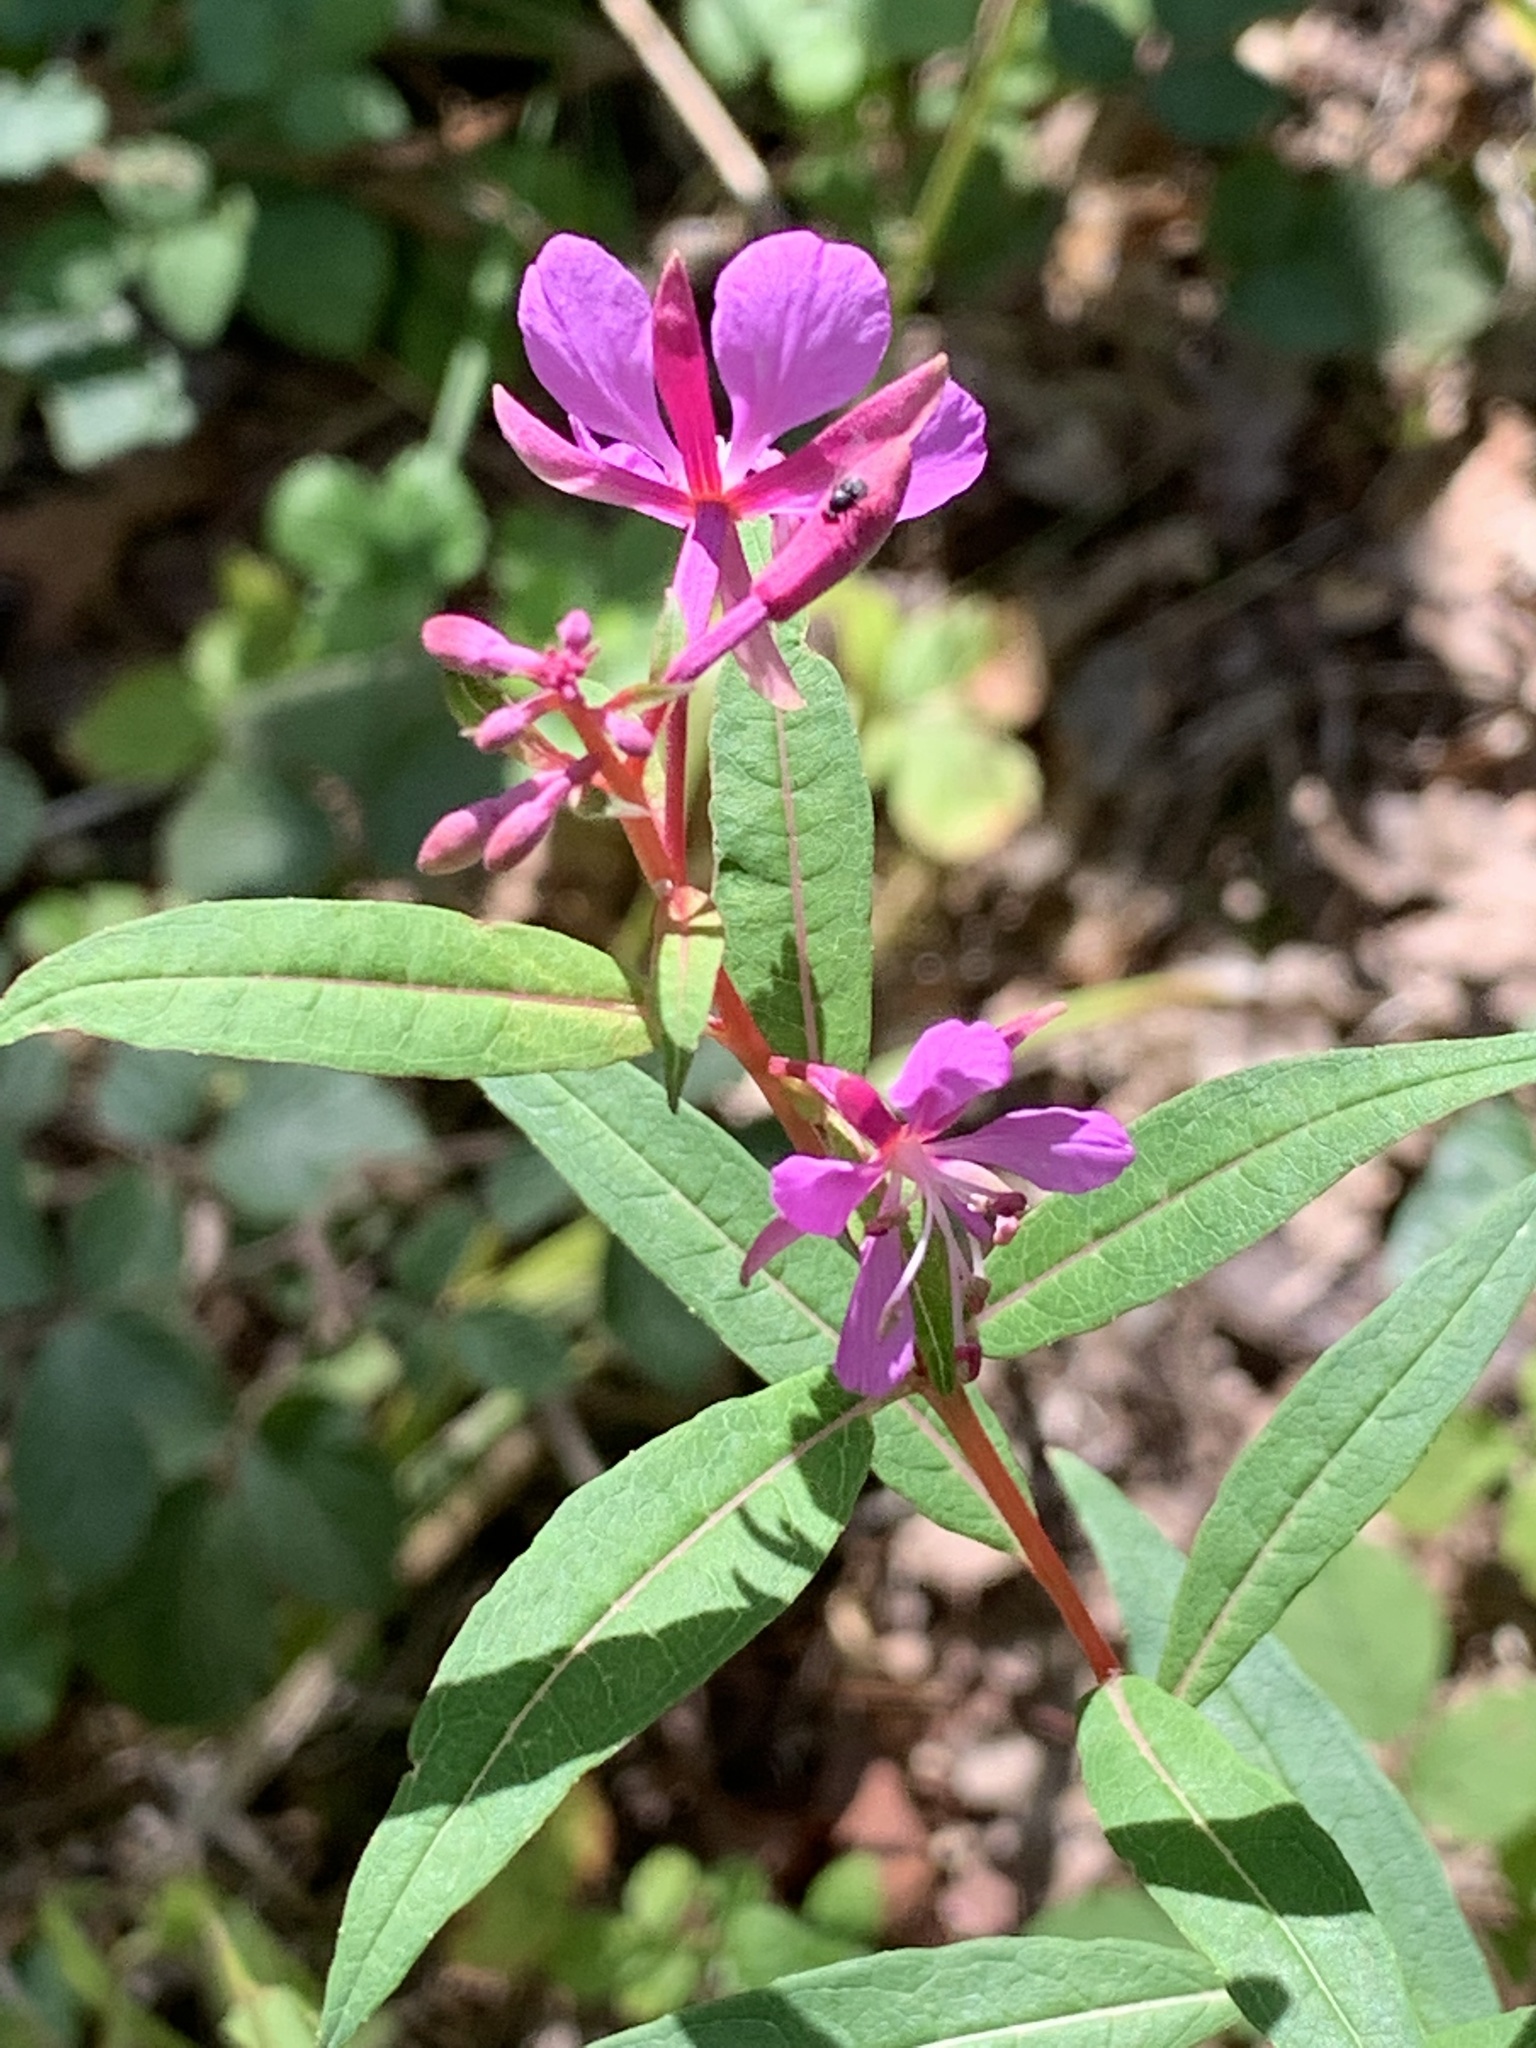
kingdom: Plantae
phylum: Tracheophyta
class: Magnoliopsida
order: Myrtales
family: Onagraceae
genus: Chamaenerion
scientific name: Chamaenerion angustifolium
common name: Fireweed
